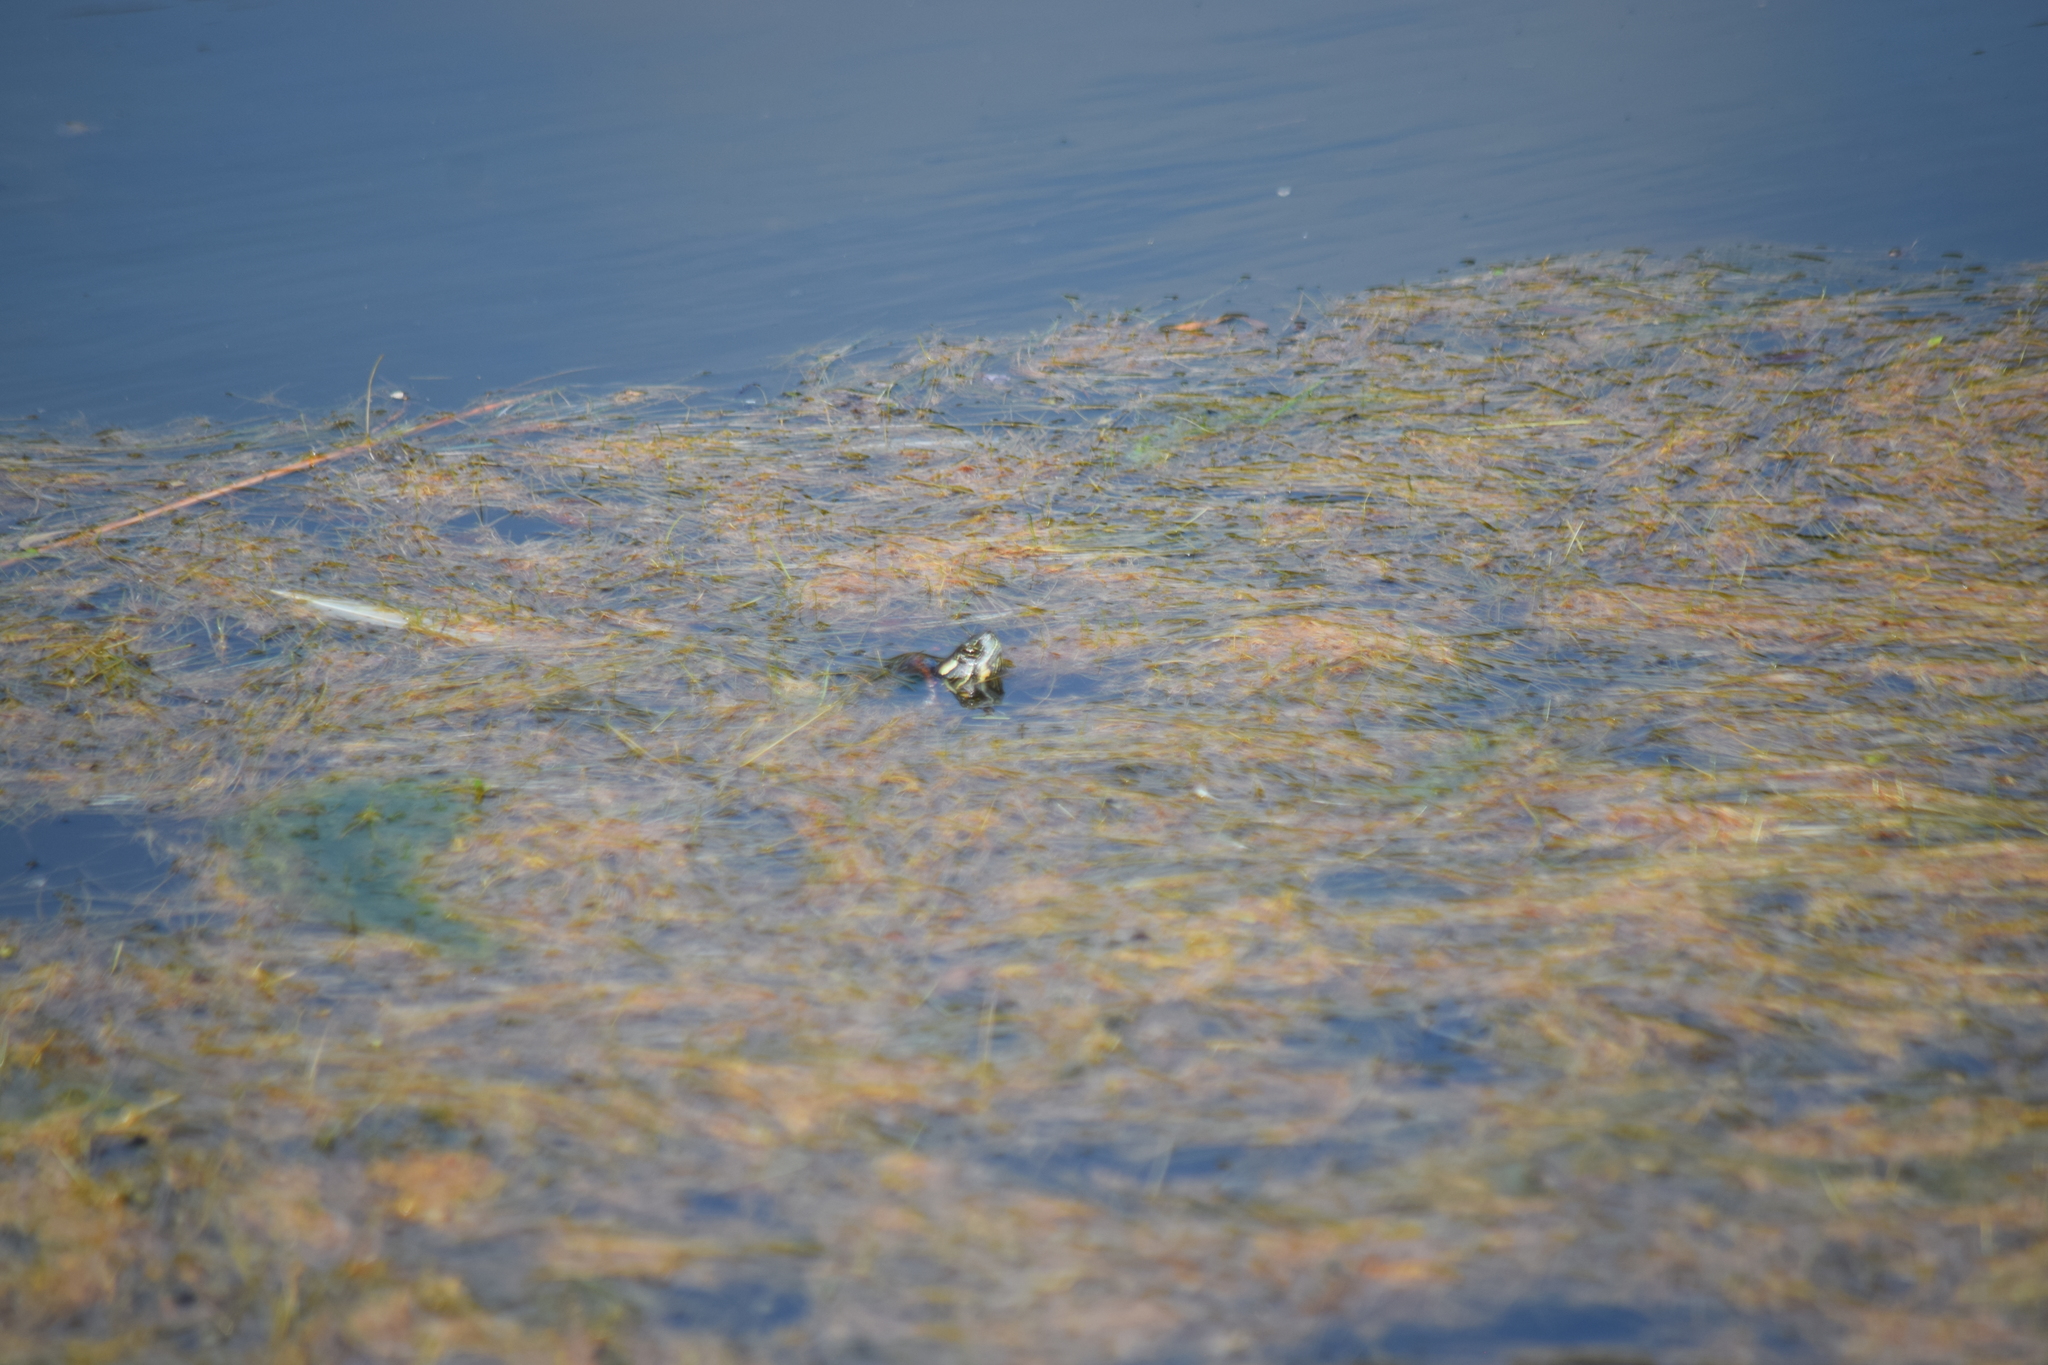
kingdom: Animalia
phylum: Chordata
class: Testudines
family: Emydidae
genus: Chrysemys
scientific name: Chrysemys picta
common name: Painted turtle
